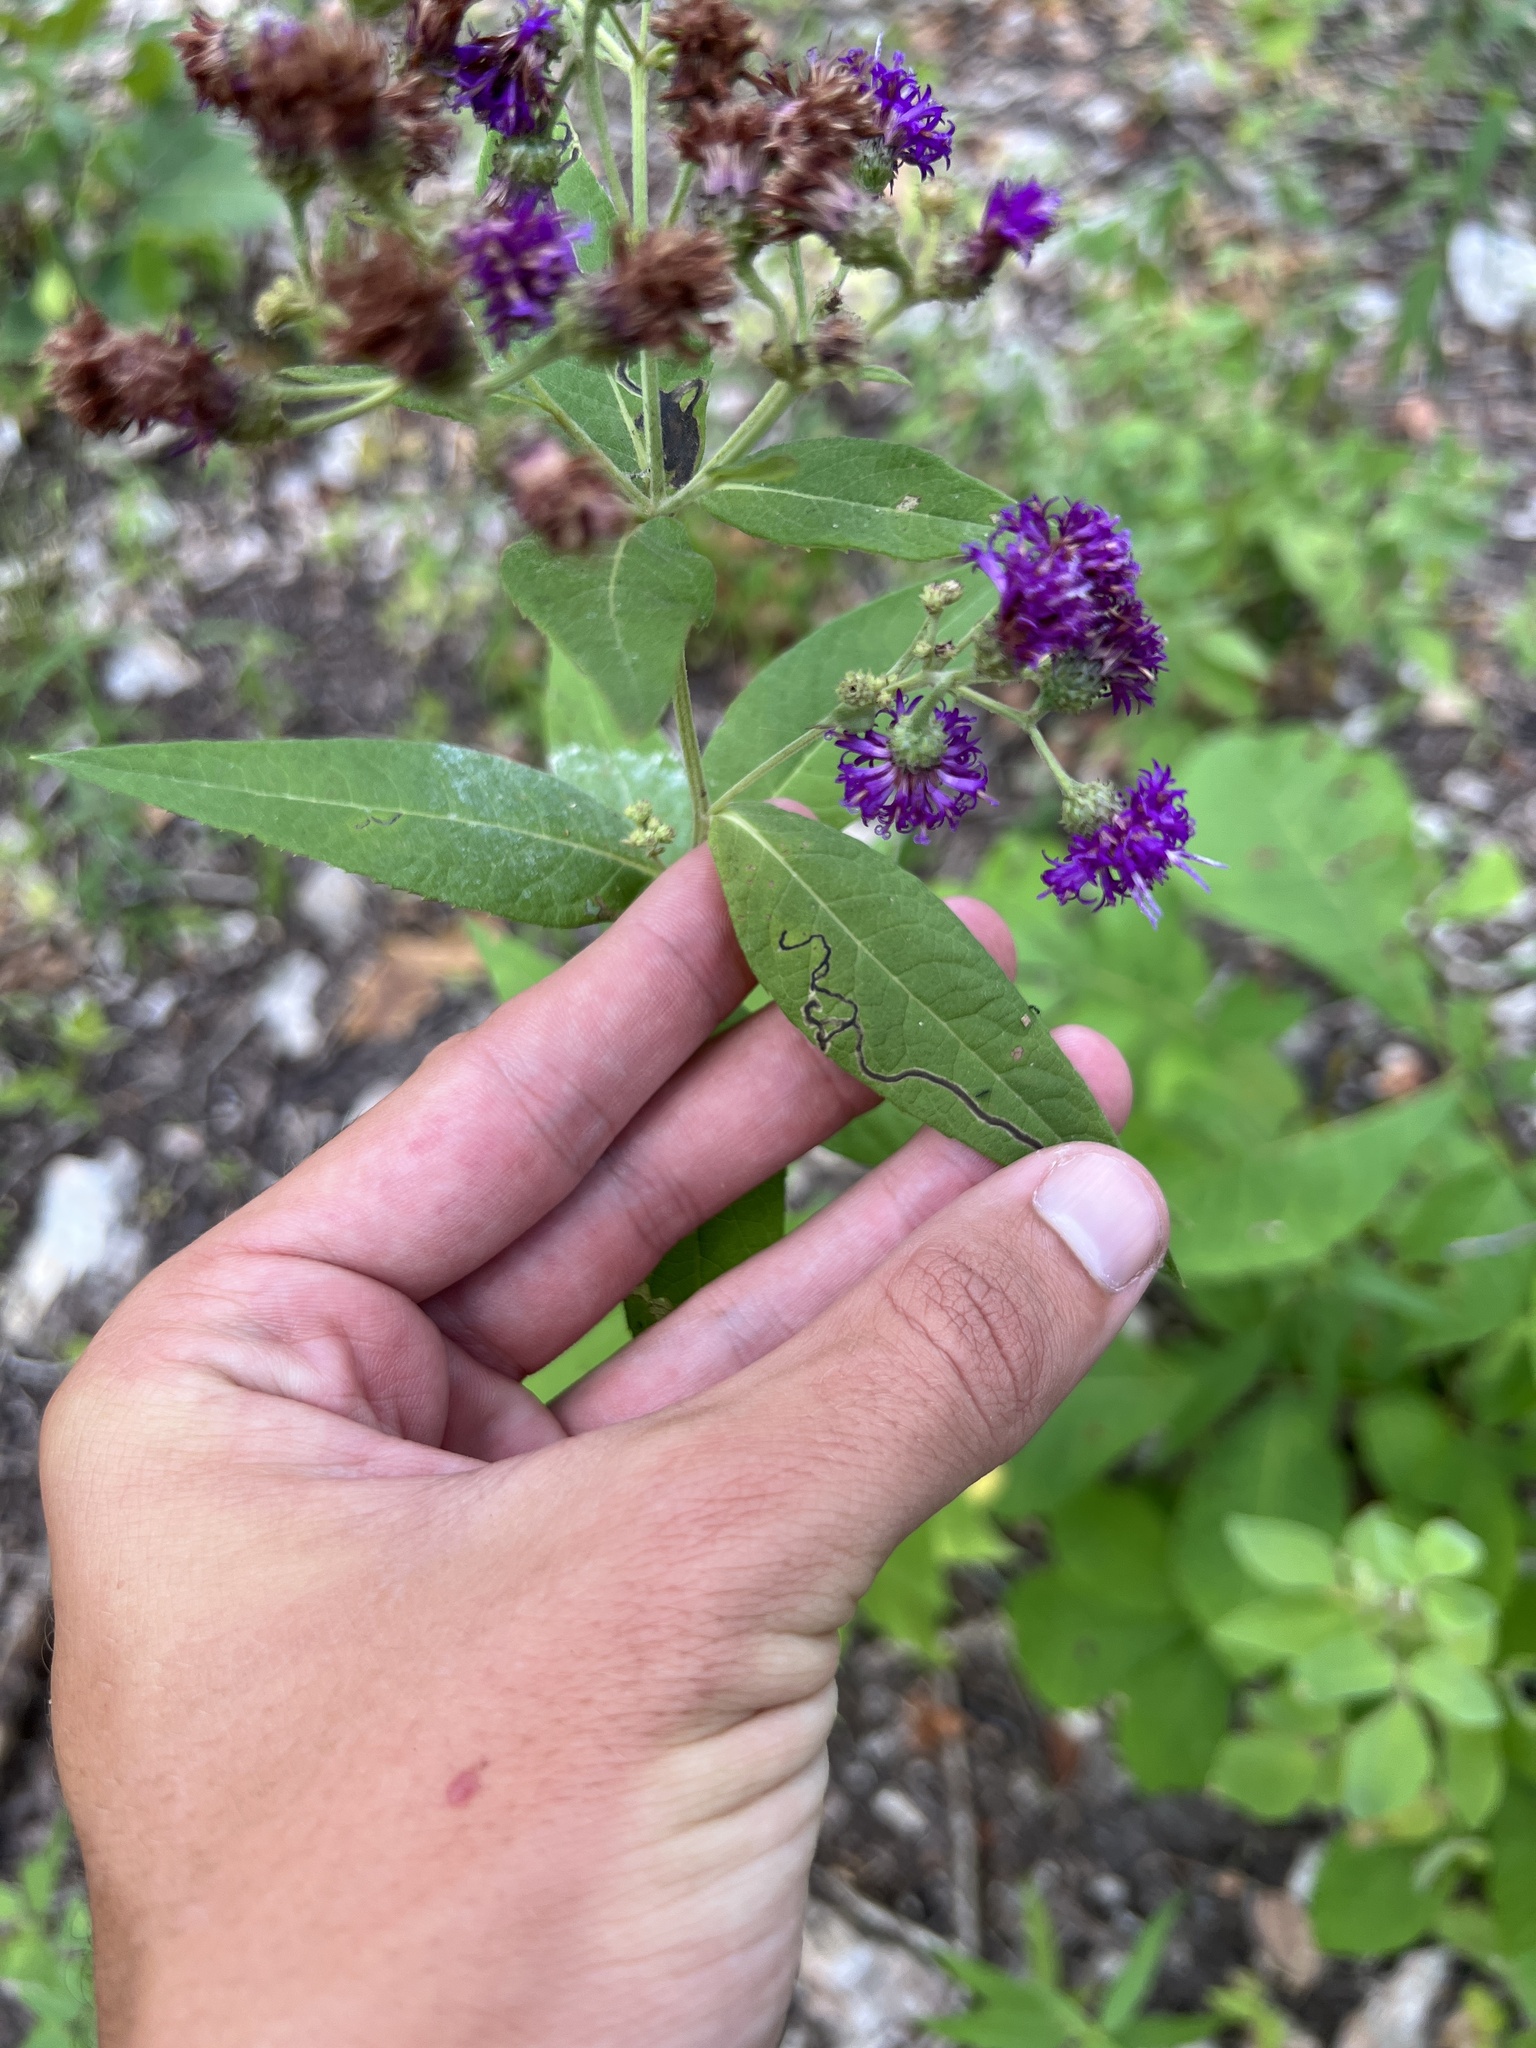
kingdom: Plantae
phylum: Tracheophyta
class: Magnoliopsida
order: Asterales
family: Asteraceae
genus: Vernonia
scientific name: Vernonia baldwinii
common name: Western ironweed
